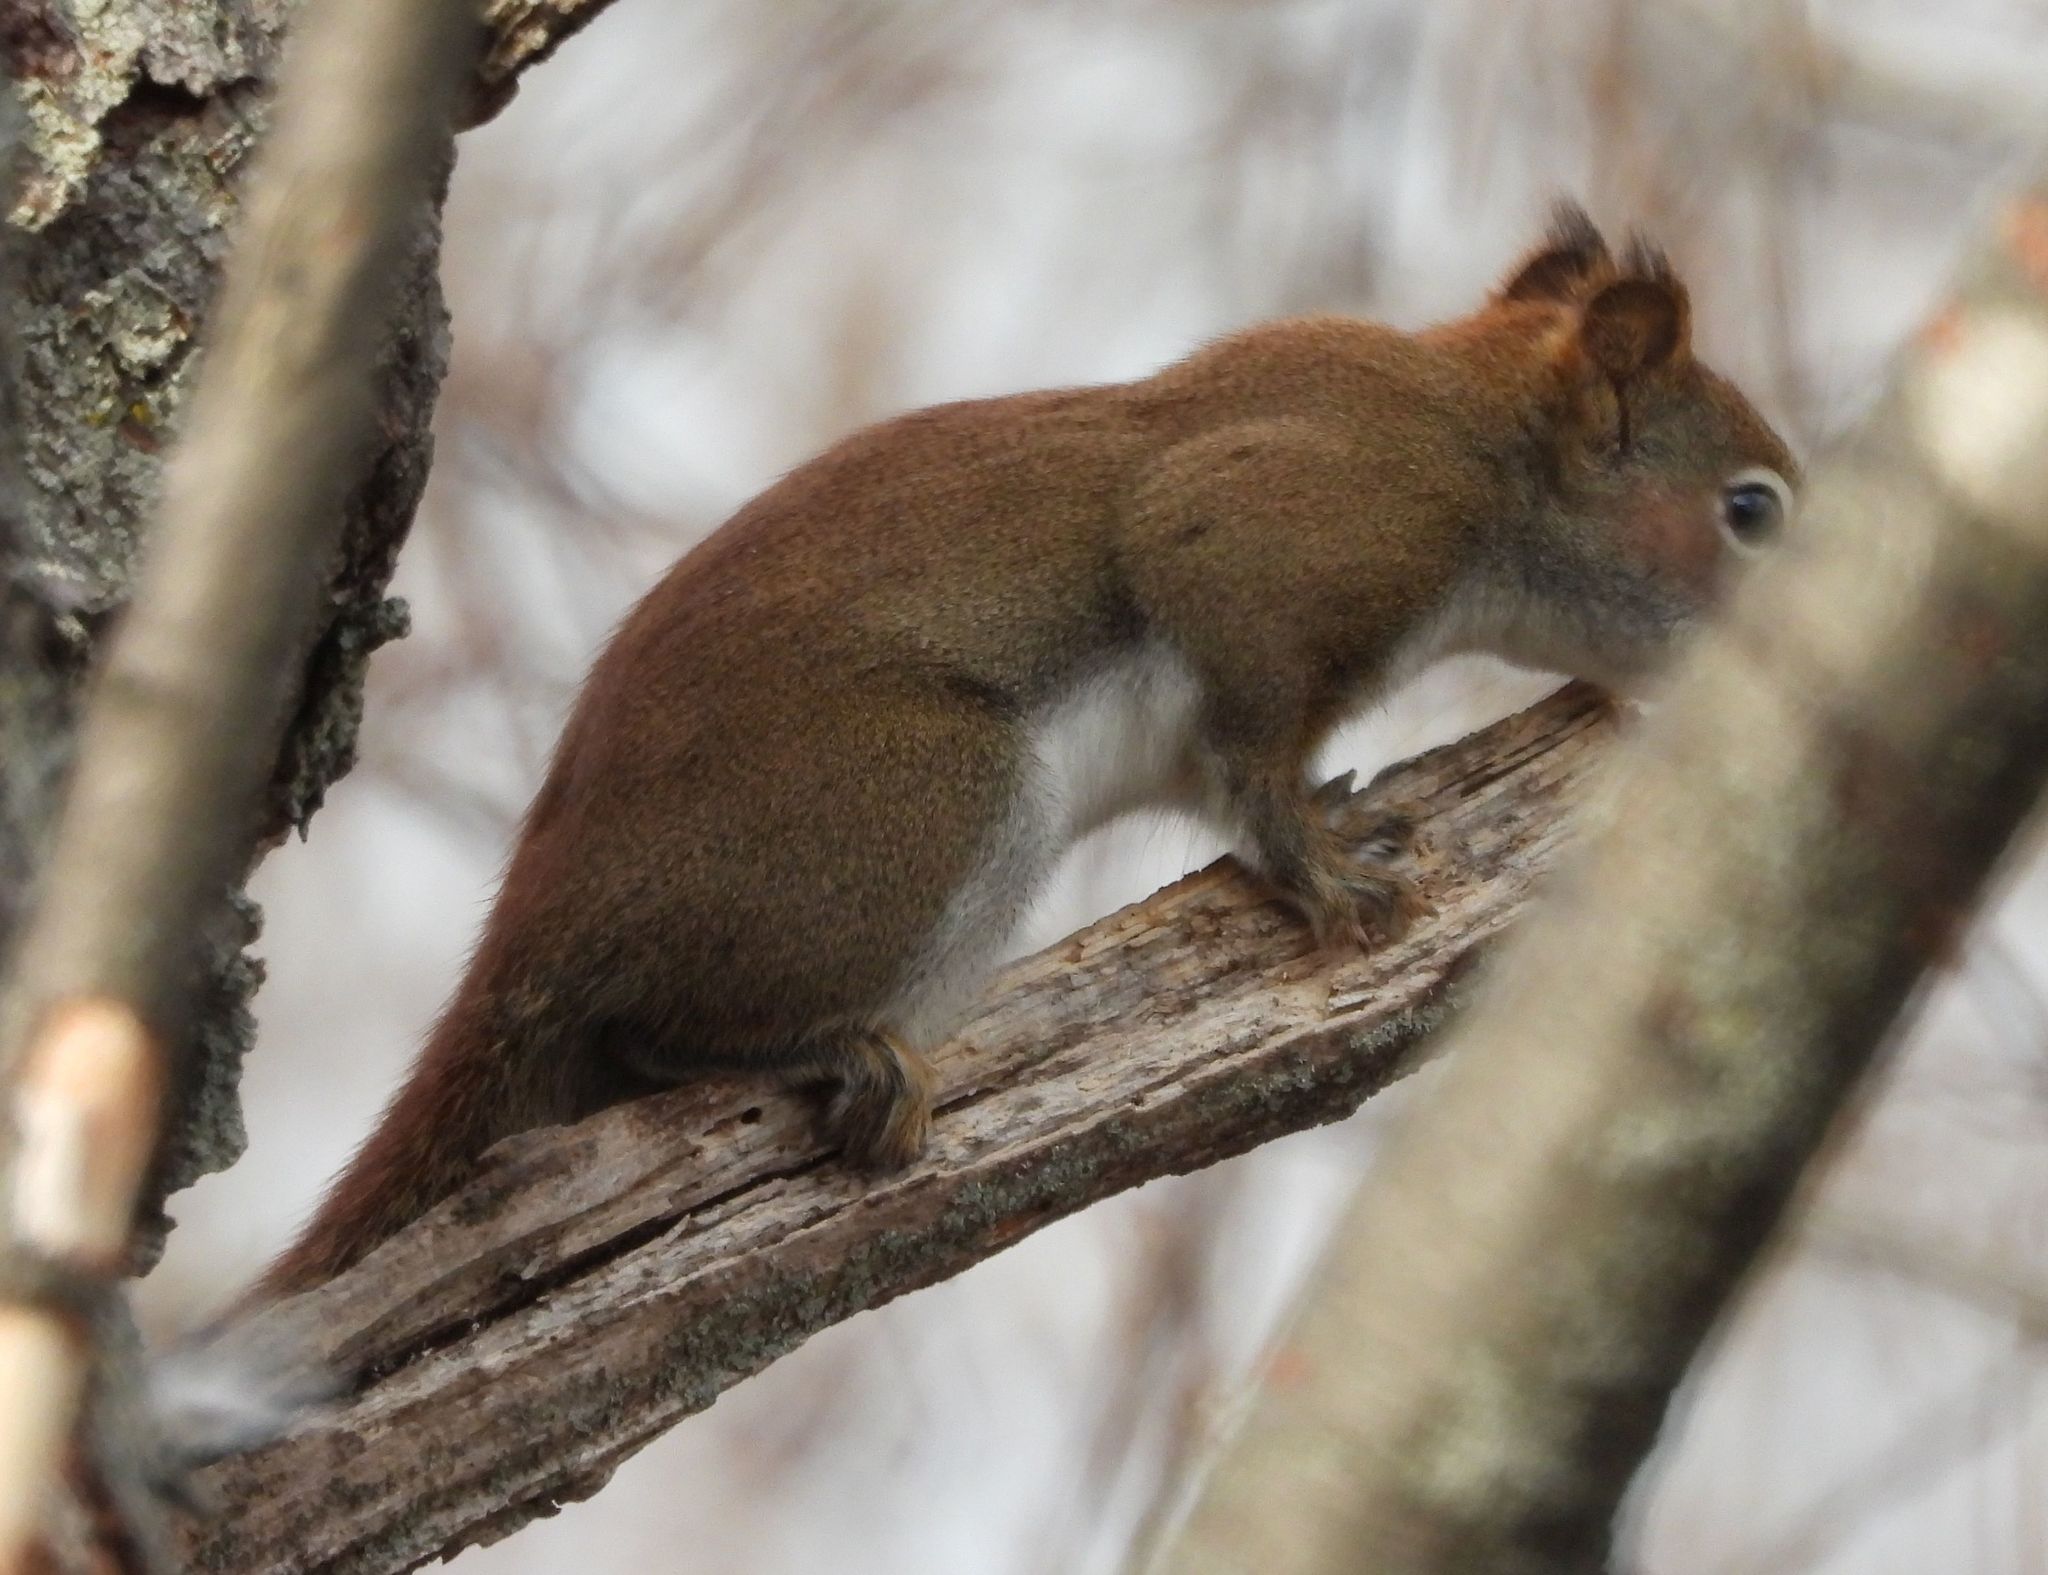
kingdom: Animalia
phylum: Chordata
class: Mammalia
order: Rodentia
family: Sciuridae
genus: Tamiasciurus
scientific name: Tamiasciurus hudsonicus
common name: Red squirrel
